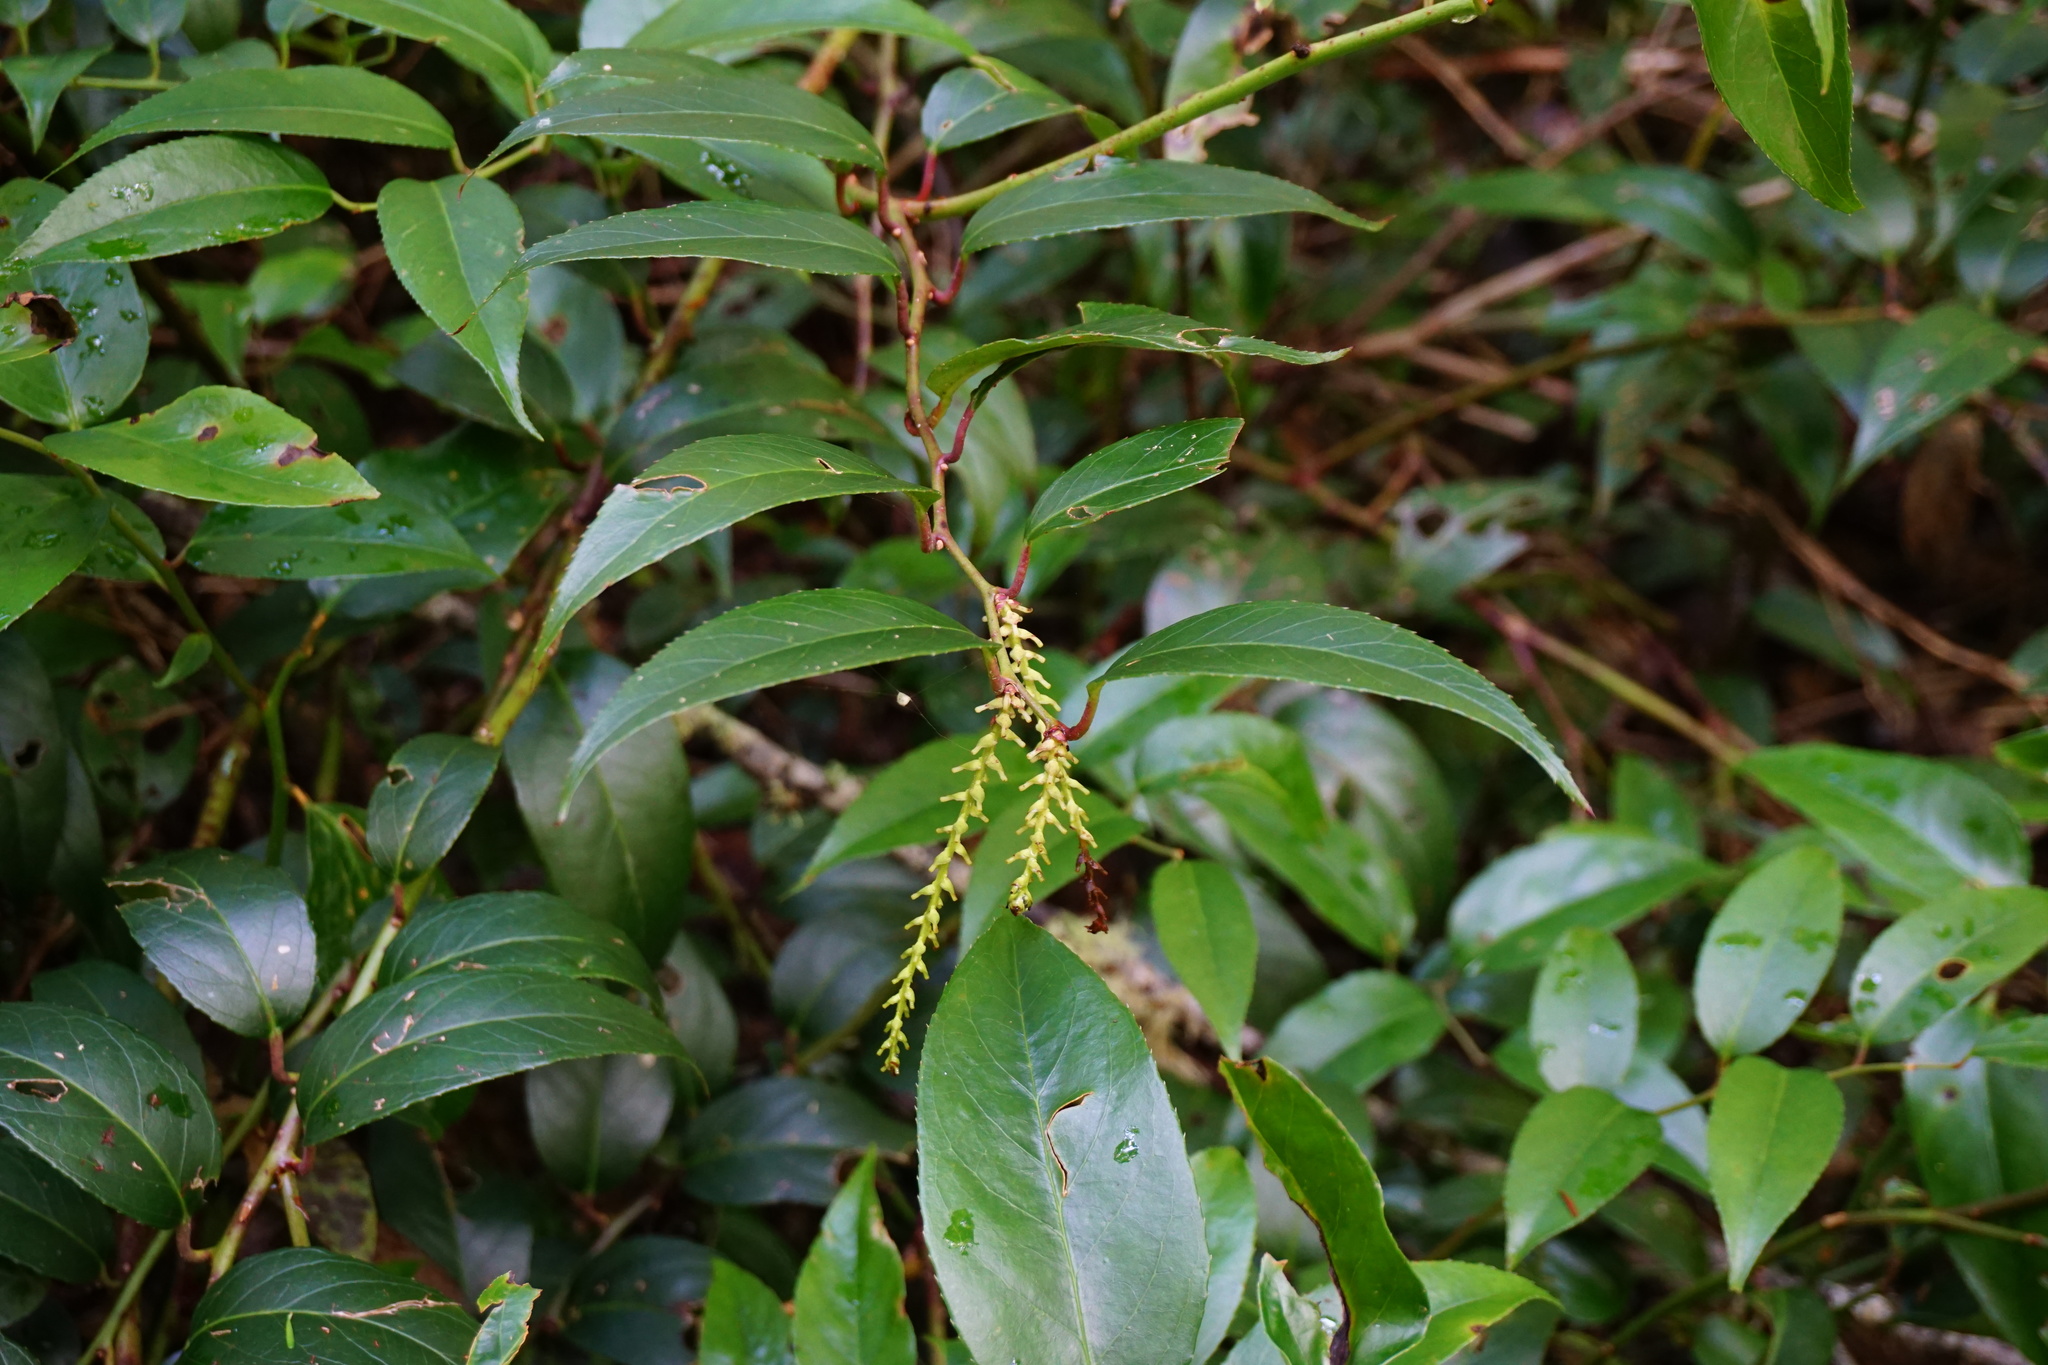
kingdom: Plantae
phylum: Tracheophyta
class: Magnoliopsida
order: Ericales
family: Ericaceae
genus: Leucothoe
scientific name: Leucothoe fontanesiana
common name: Fetterbush
